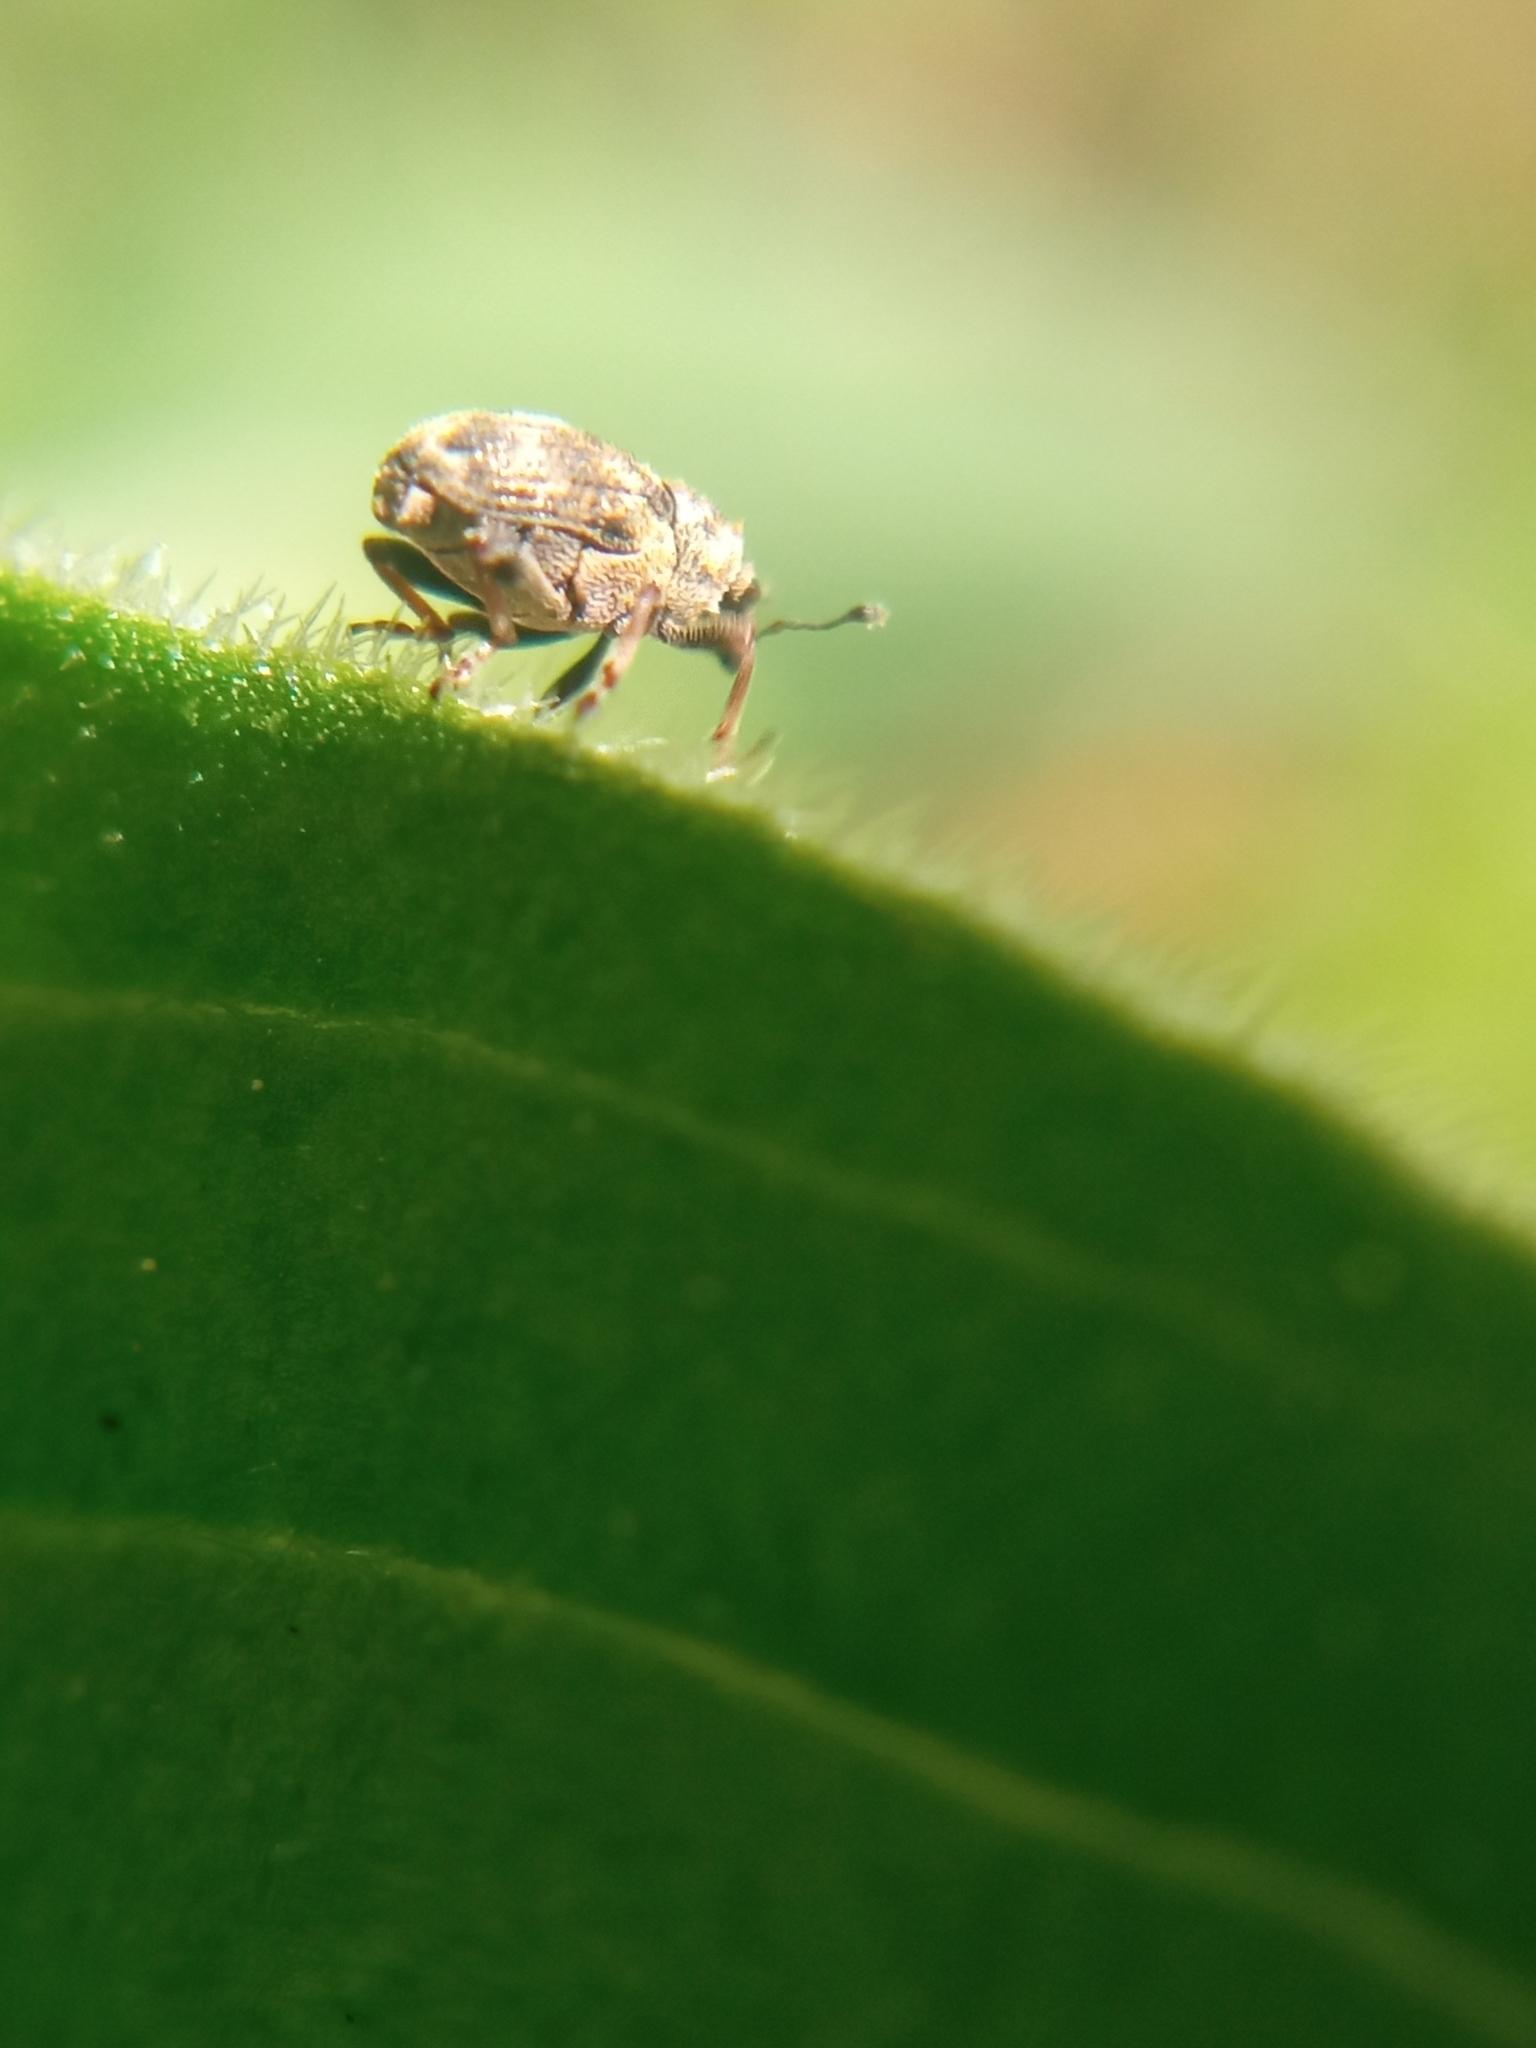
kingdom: Animalia
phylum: Arthropoda
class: Insecta
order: Coleoptera
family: Curculionidae
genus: Rhinoncus
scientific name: Rhinoncus perpendicularis
